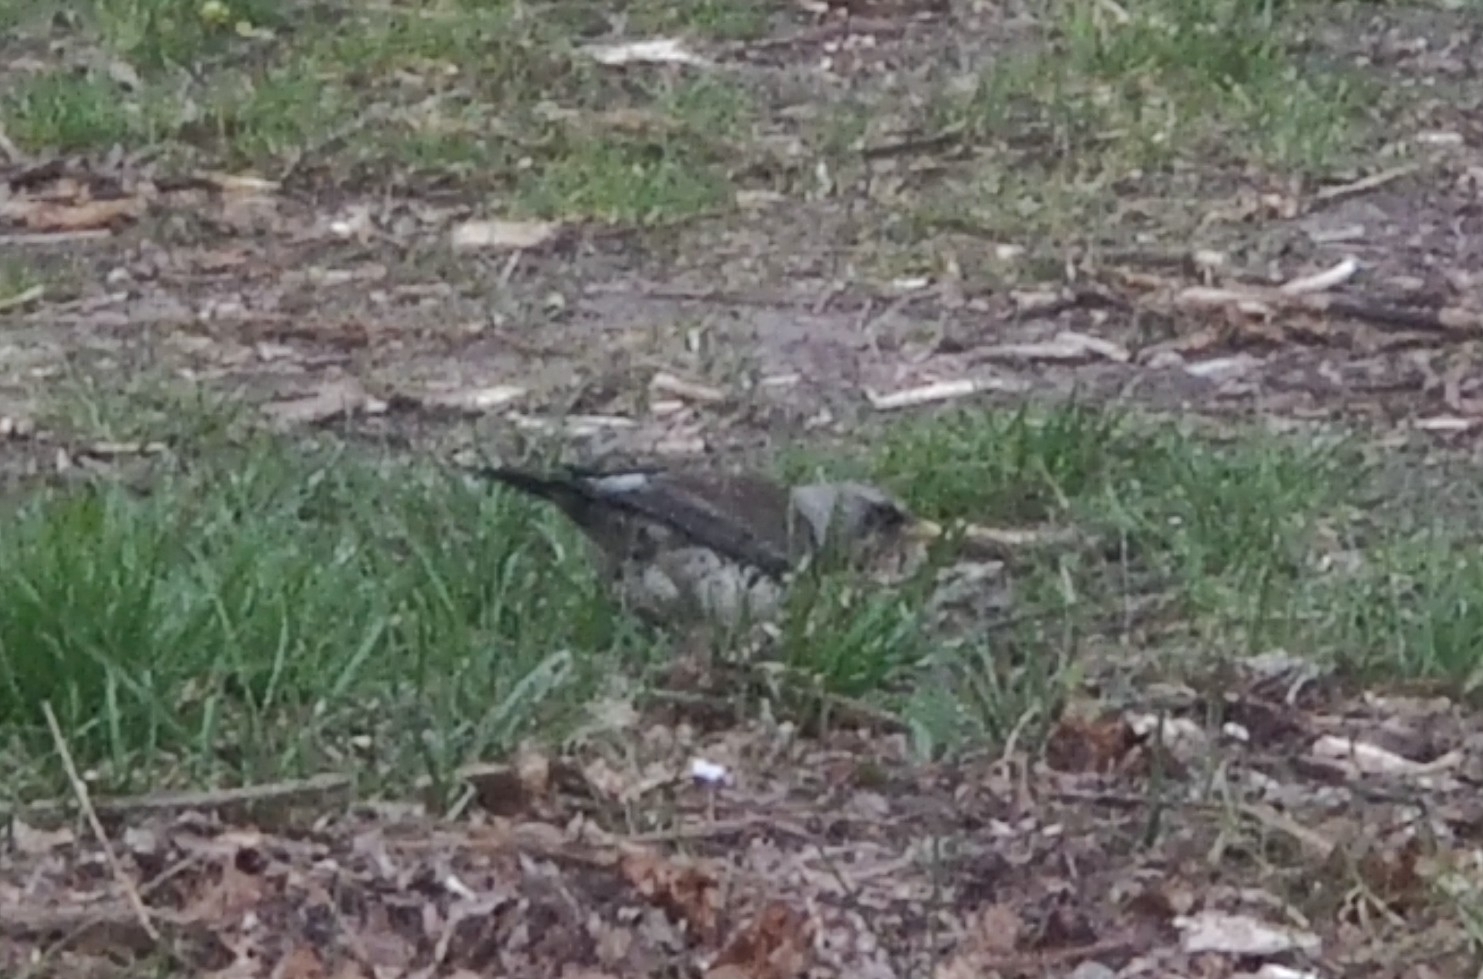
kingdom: Animalia
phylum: Chordata
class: Aves
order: Passeriformes
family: Turdidae
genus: Turdus
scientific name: Turdus pilaris
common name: Fieldfare
